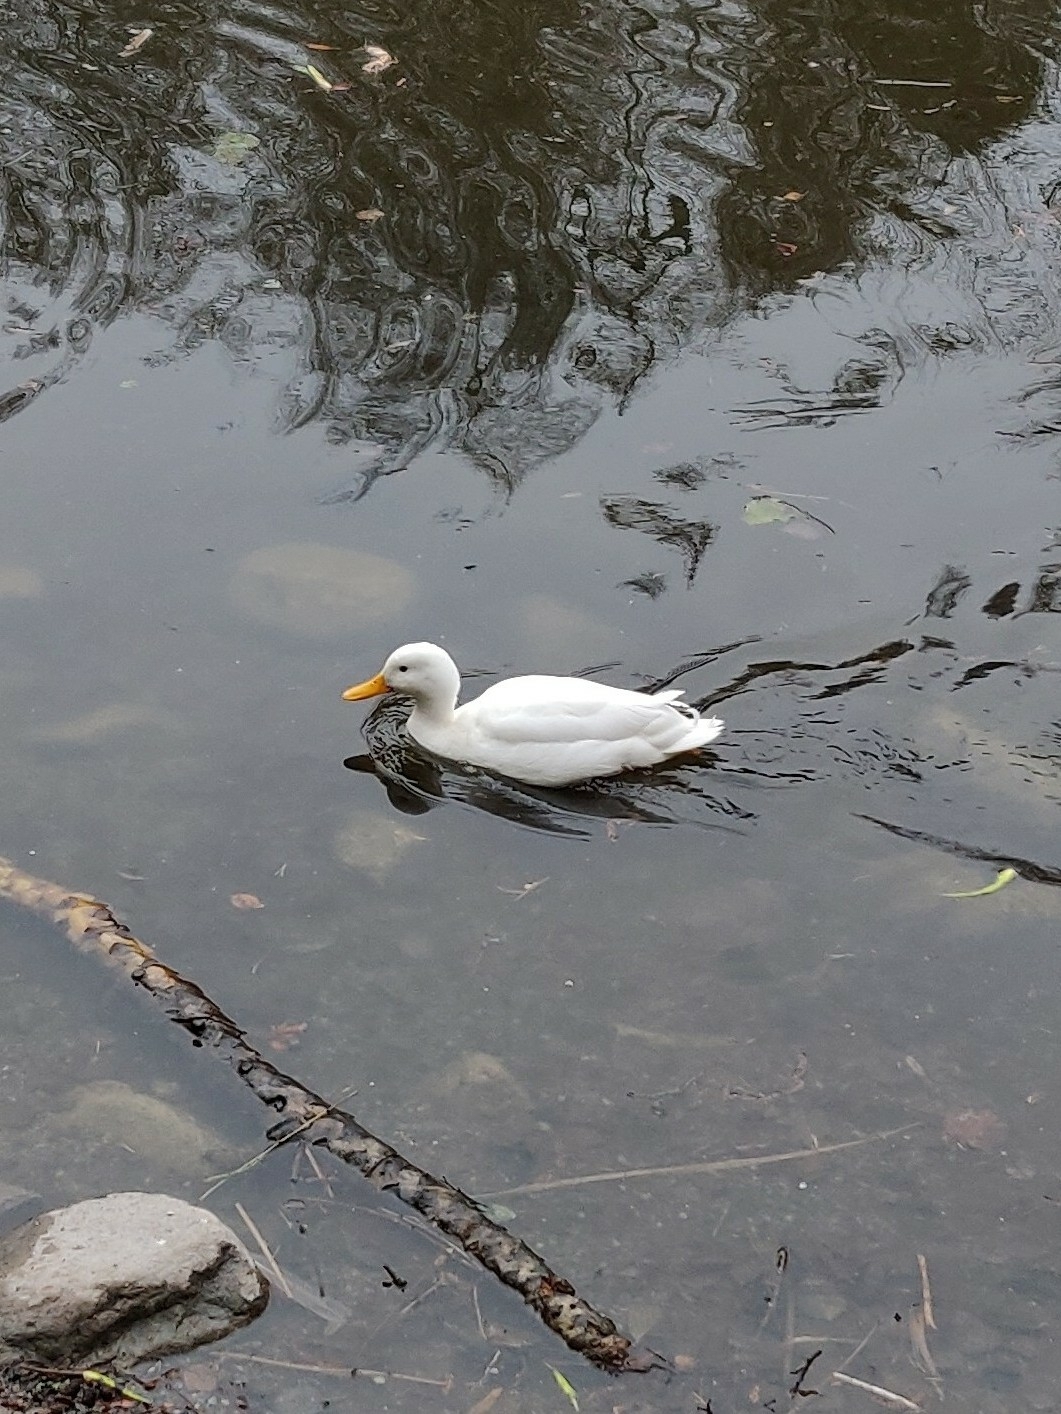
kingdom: Animalia
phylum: Chordata
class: Aves
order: Anseriformes
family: Anatidae
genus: Anas
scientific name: Anas platyrhynchos
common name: Mallard
